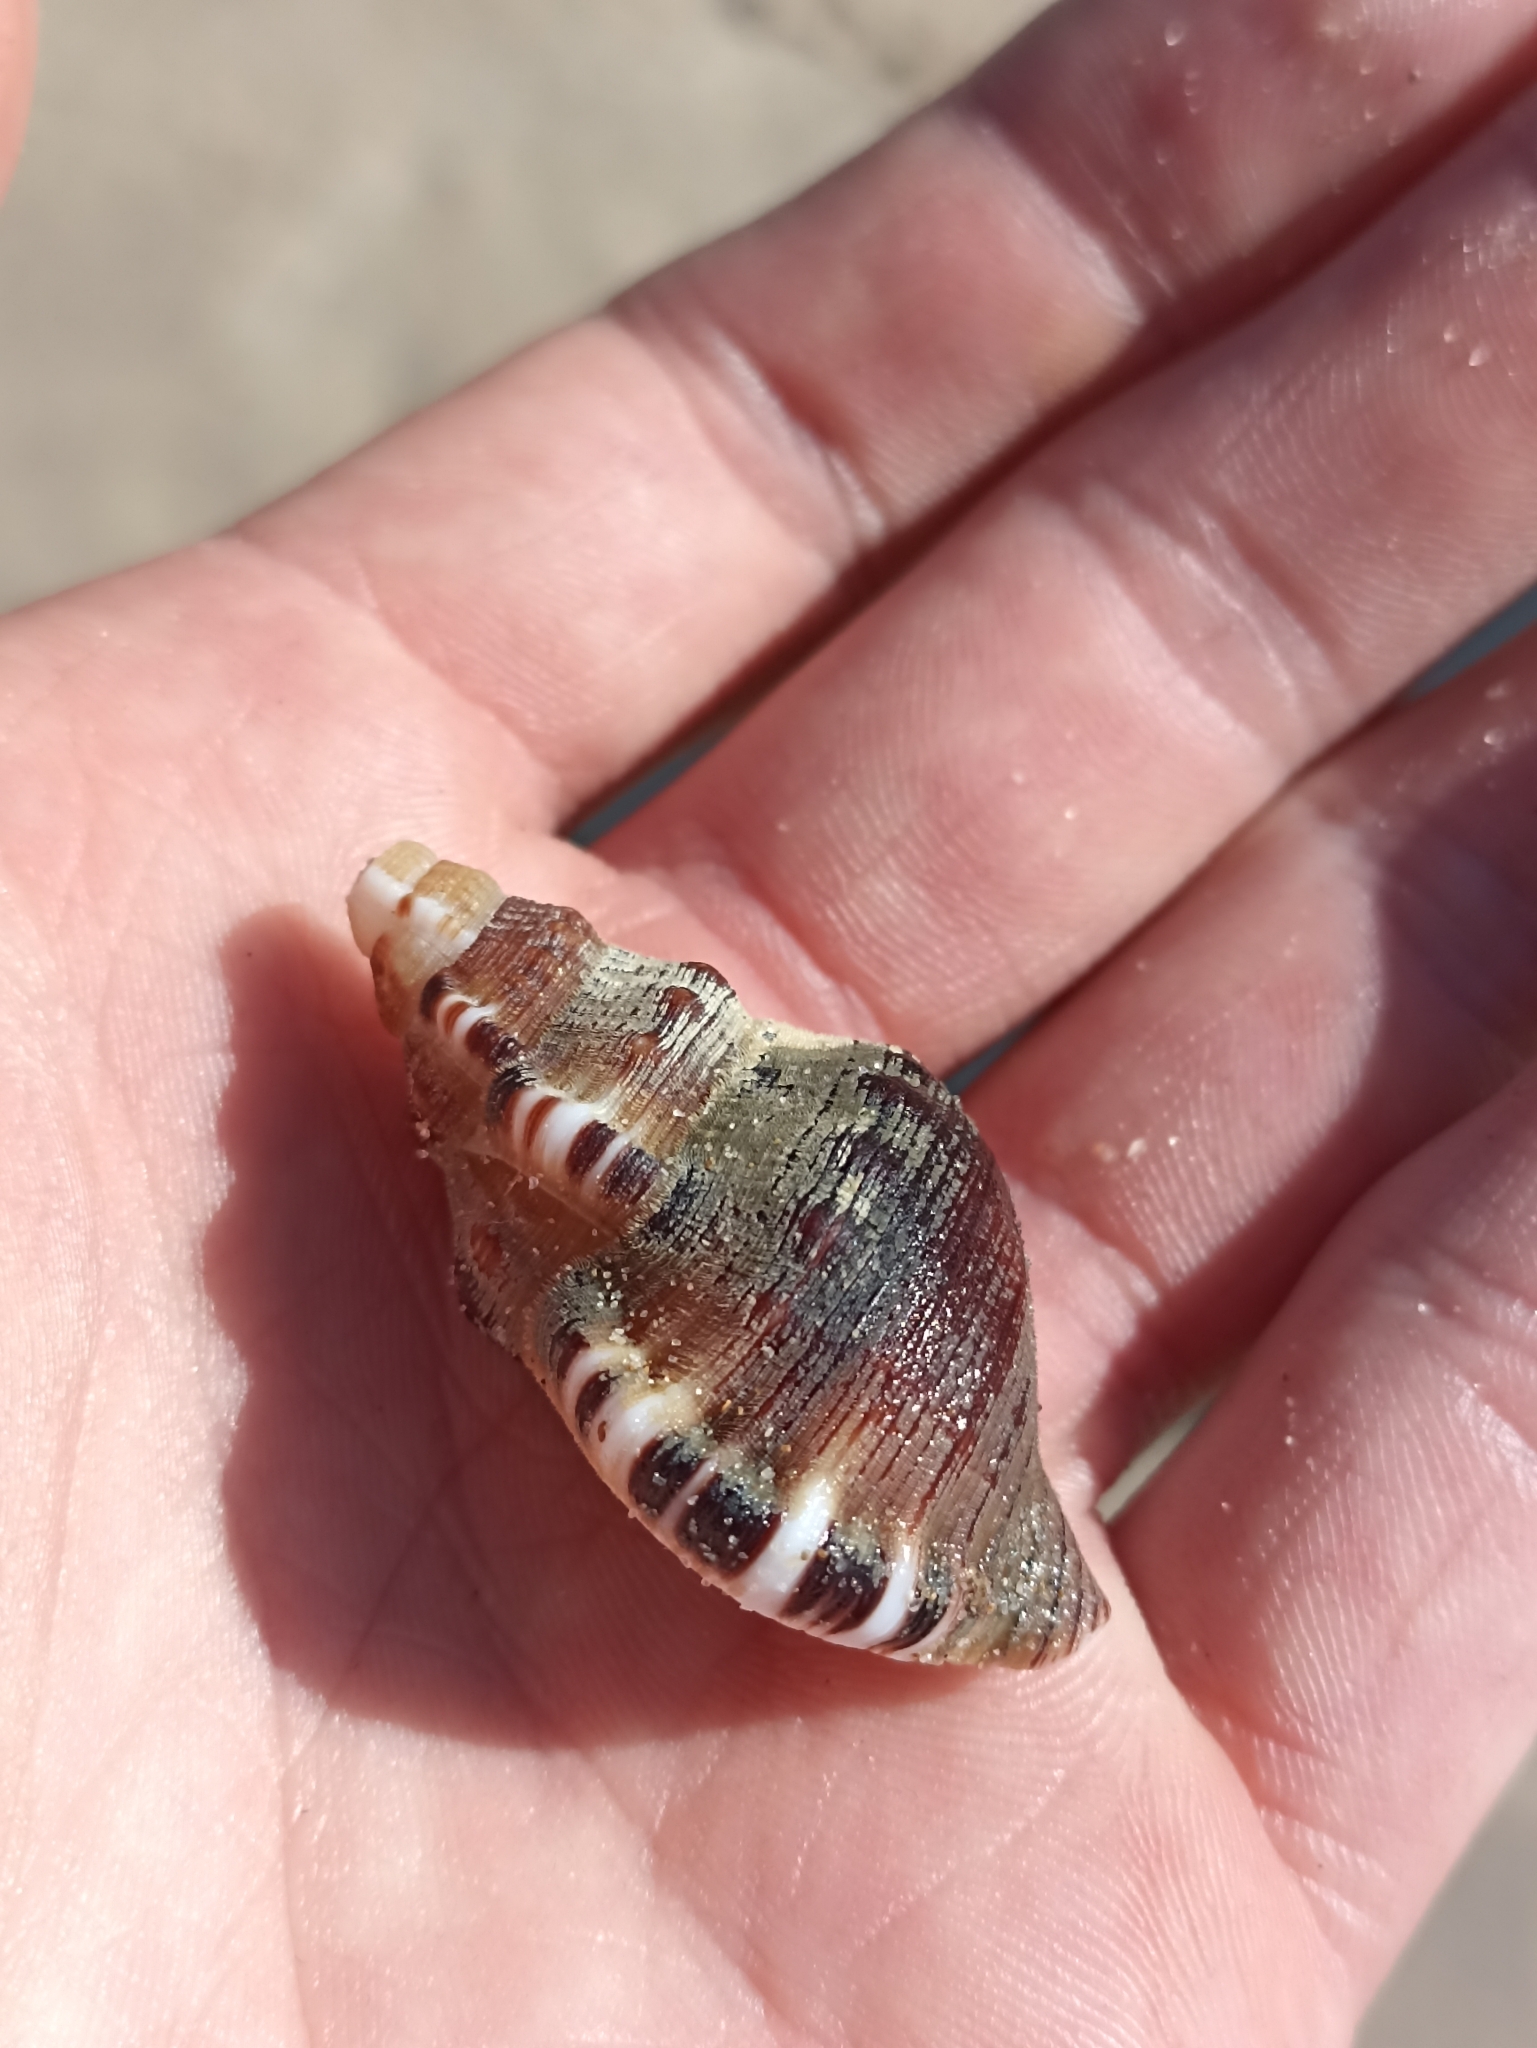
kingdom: Animalia
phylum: Mollusca
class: Gastropoda
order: Littorinimorpha
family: Ranellidae
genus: Ranella
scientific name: Ranella australasia
